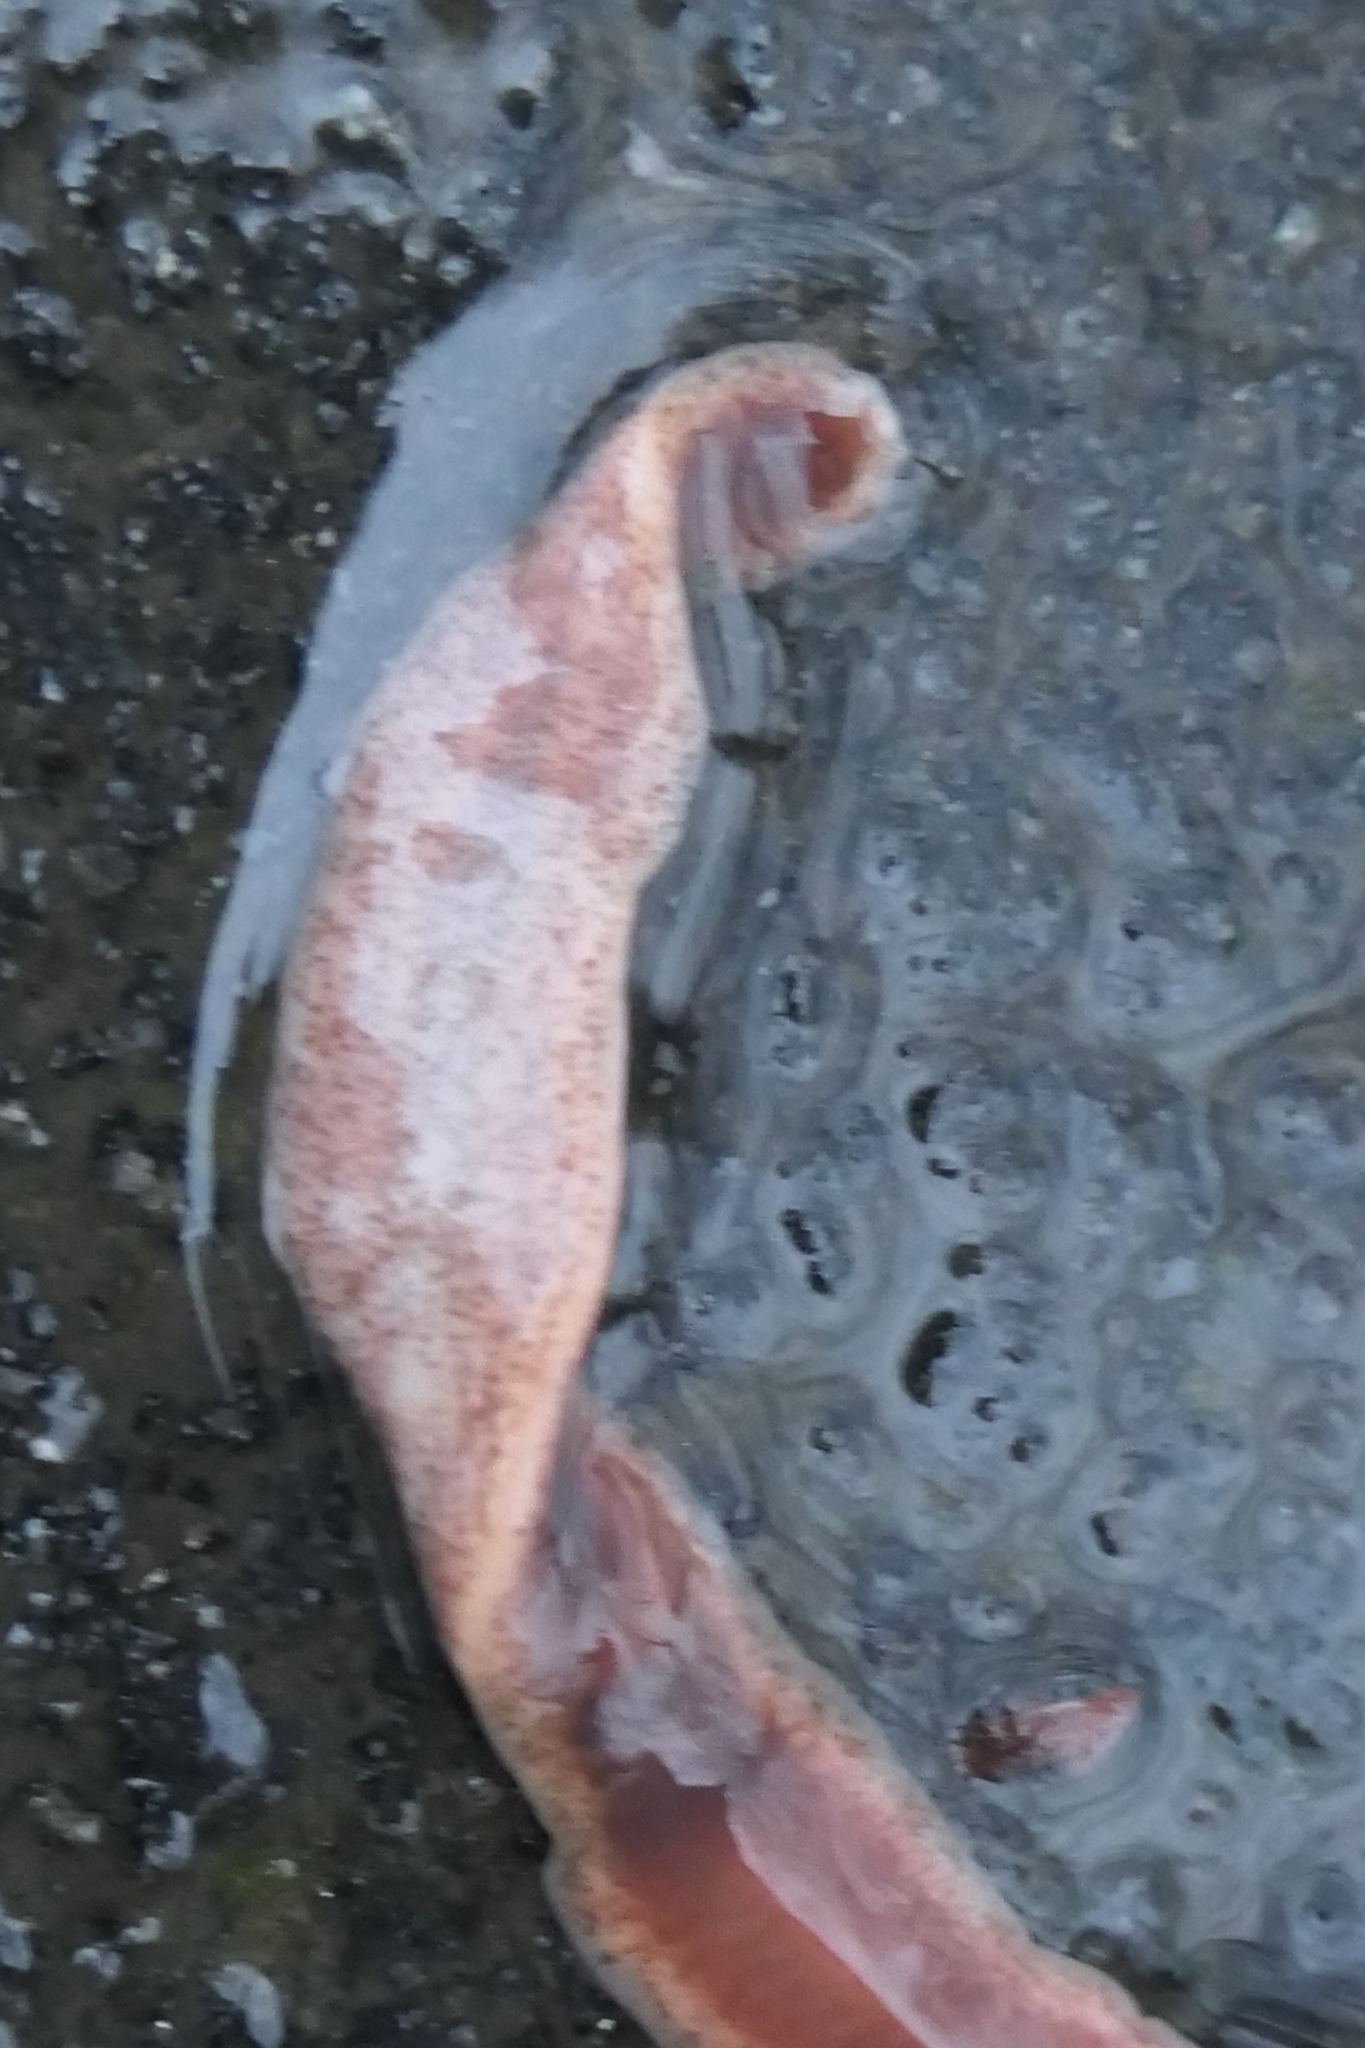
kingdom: Animalia
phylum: Platyhelminthes
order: Tricladida
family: Geoplanidae
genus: Arthurdendyus
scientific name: Arthurdendyus triangulatus
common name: New zealand flatworm
